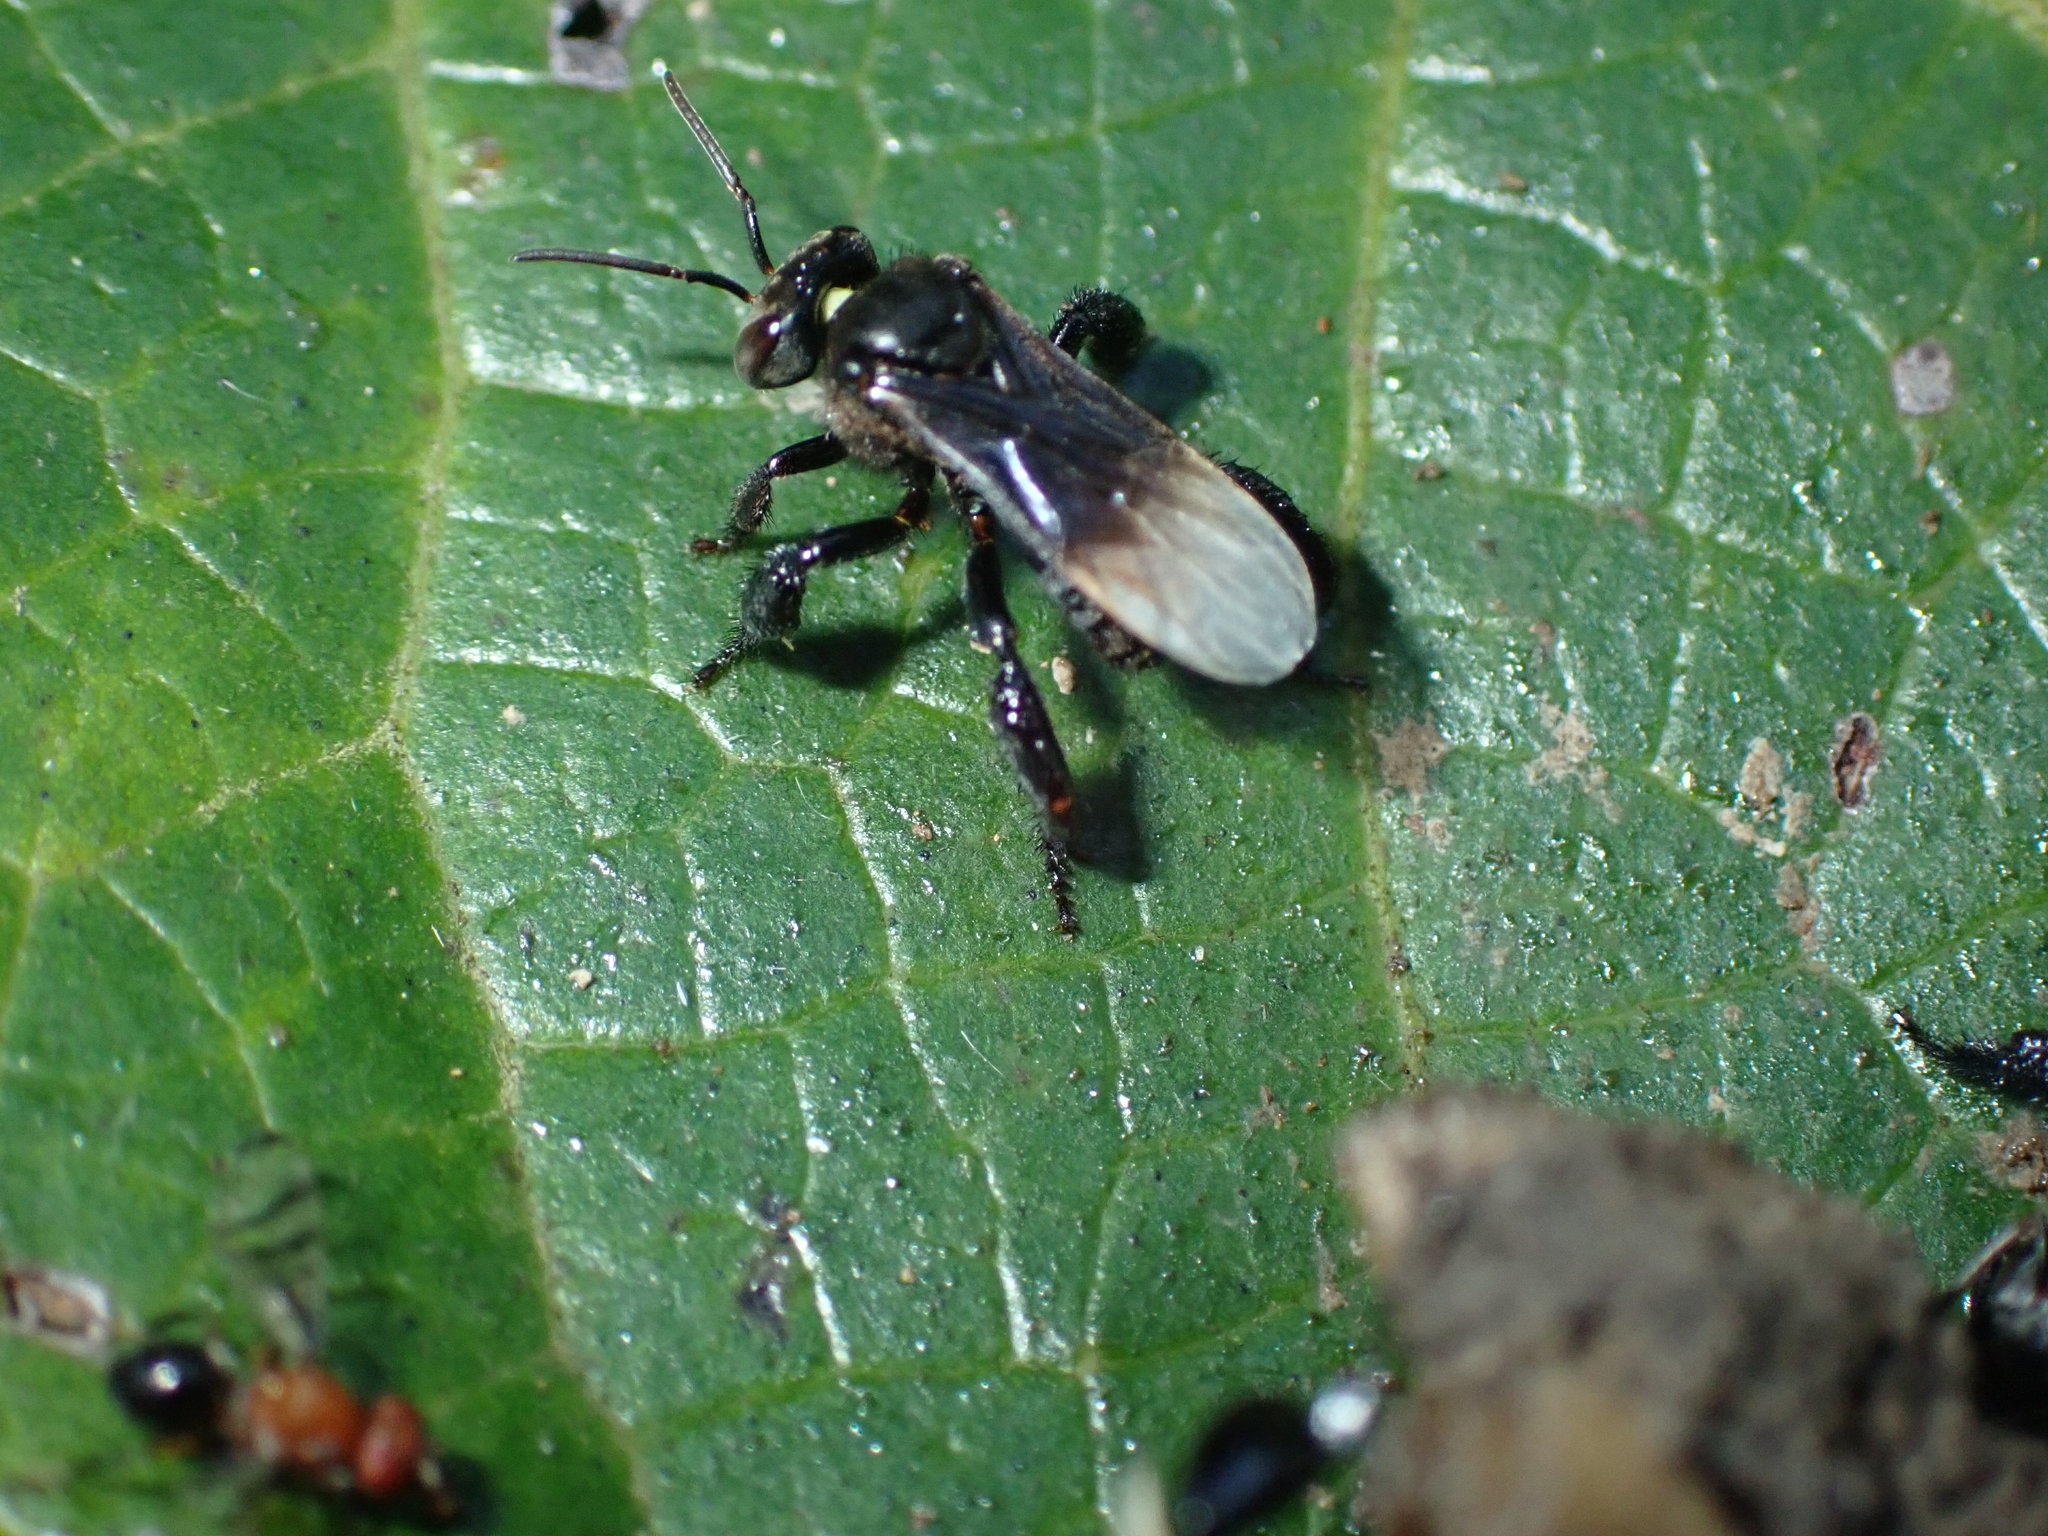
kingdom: Animalia
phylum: Arthropoda
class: Insecta
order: Hymenoptera
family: Apidae
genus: Homotrigona
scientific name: Homotrigona melanoleuca
